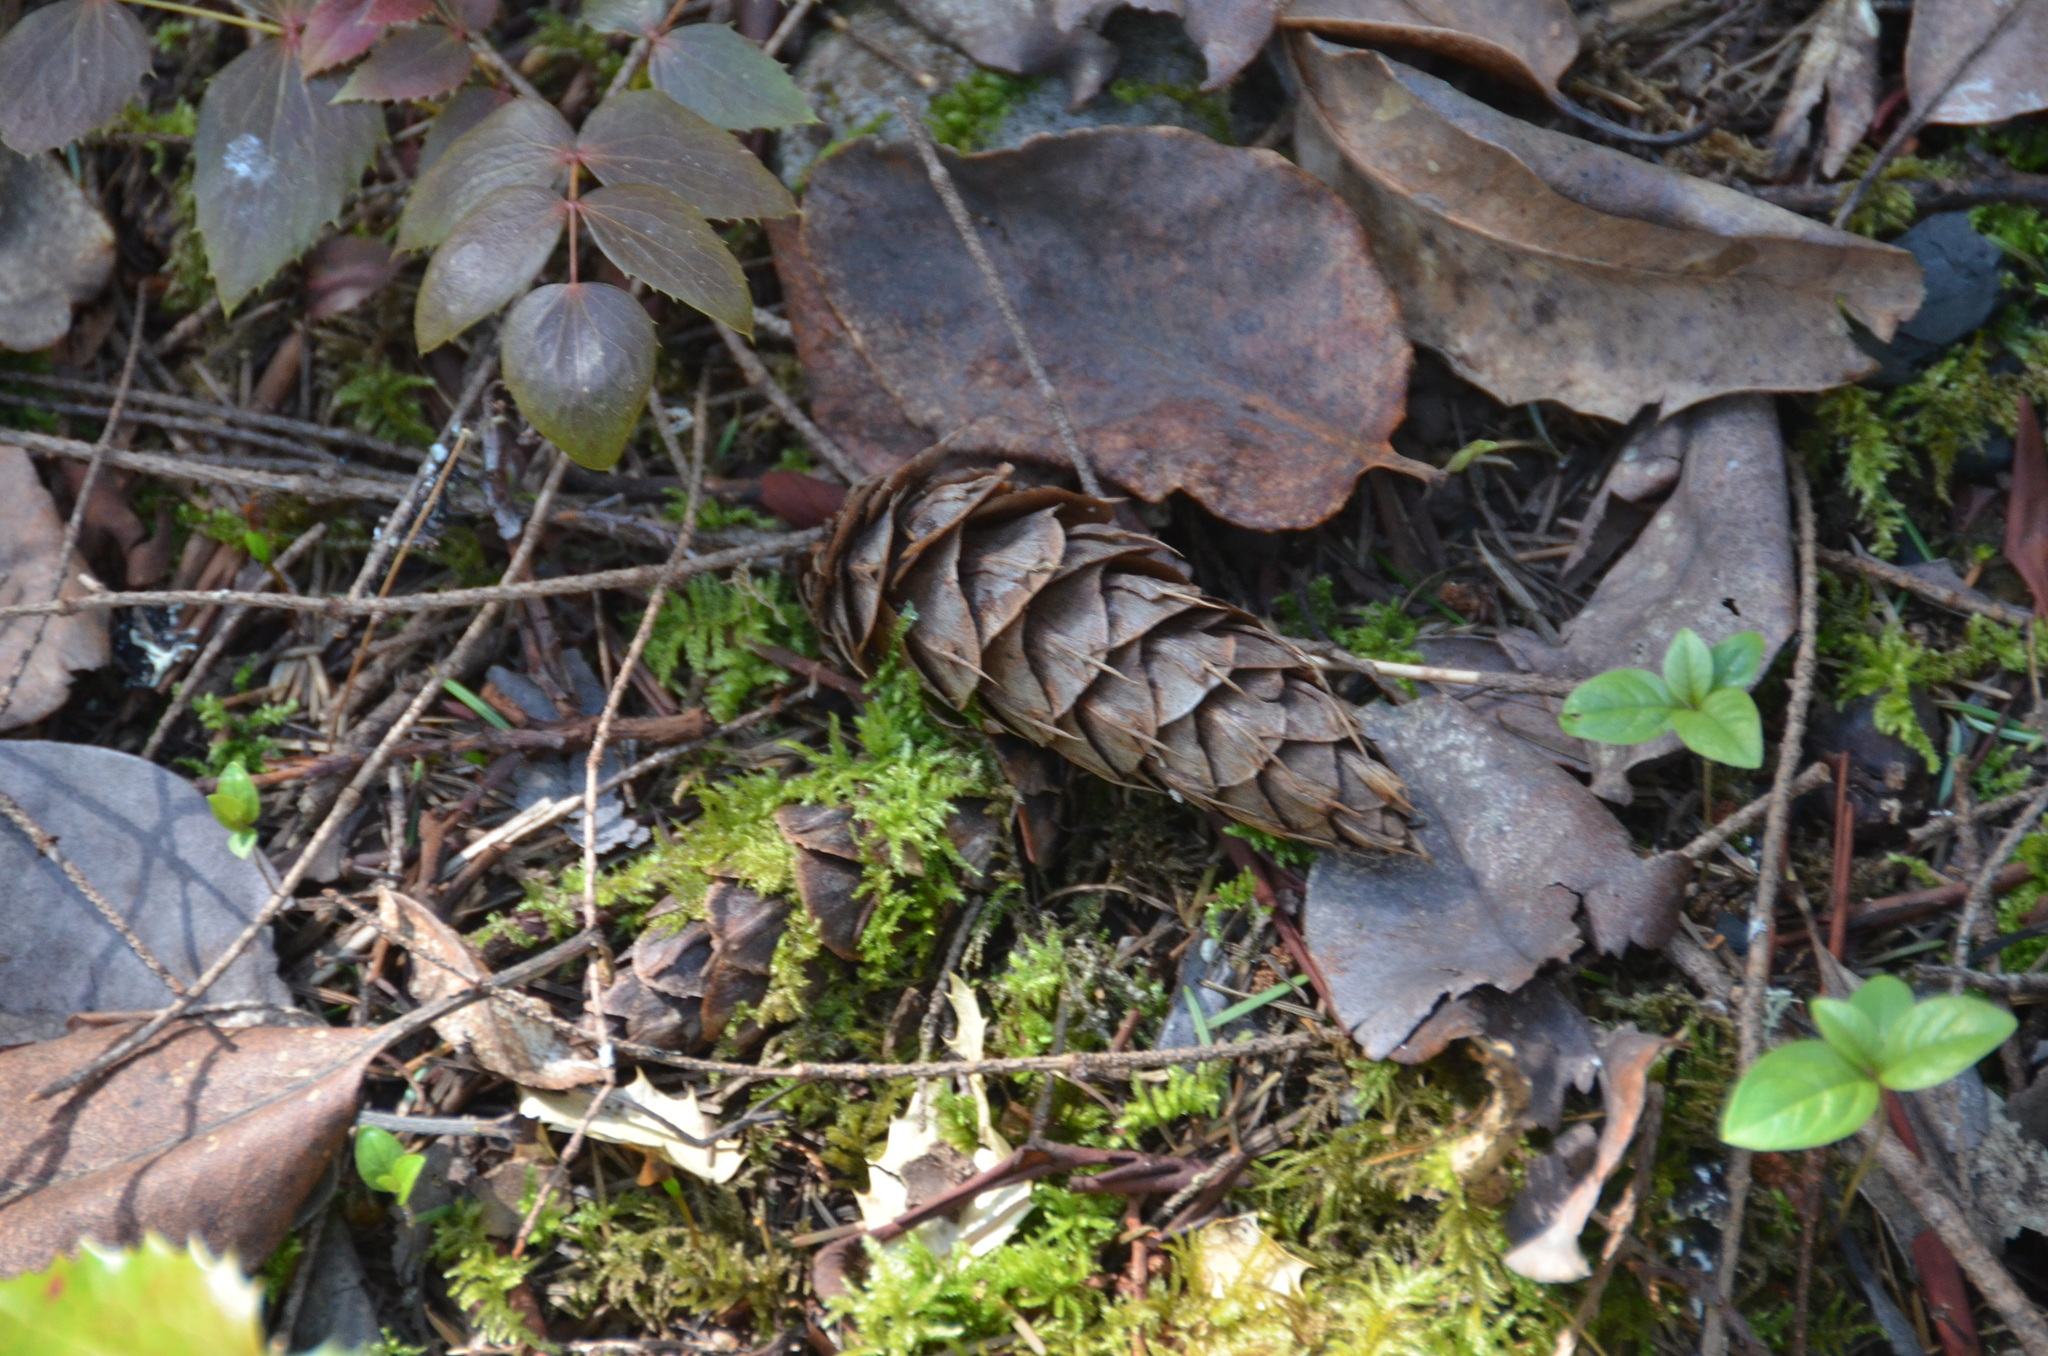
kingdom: Plantae
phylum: Tracheophyta
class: Pinopsida
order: Pinales
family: Pinaceae
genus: Pseudotsuga
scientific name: Pseudotsuga menziesii
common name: Douglas fir
